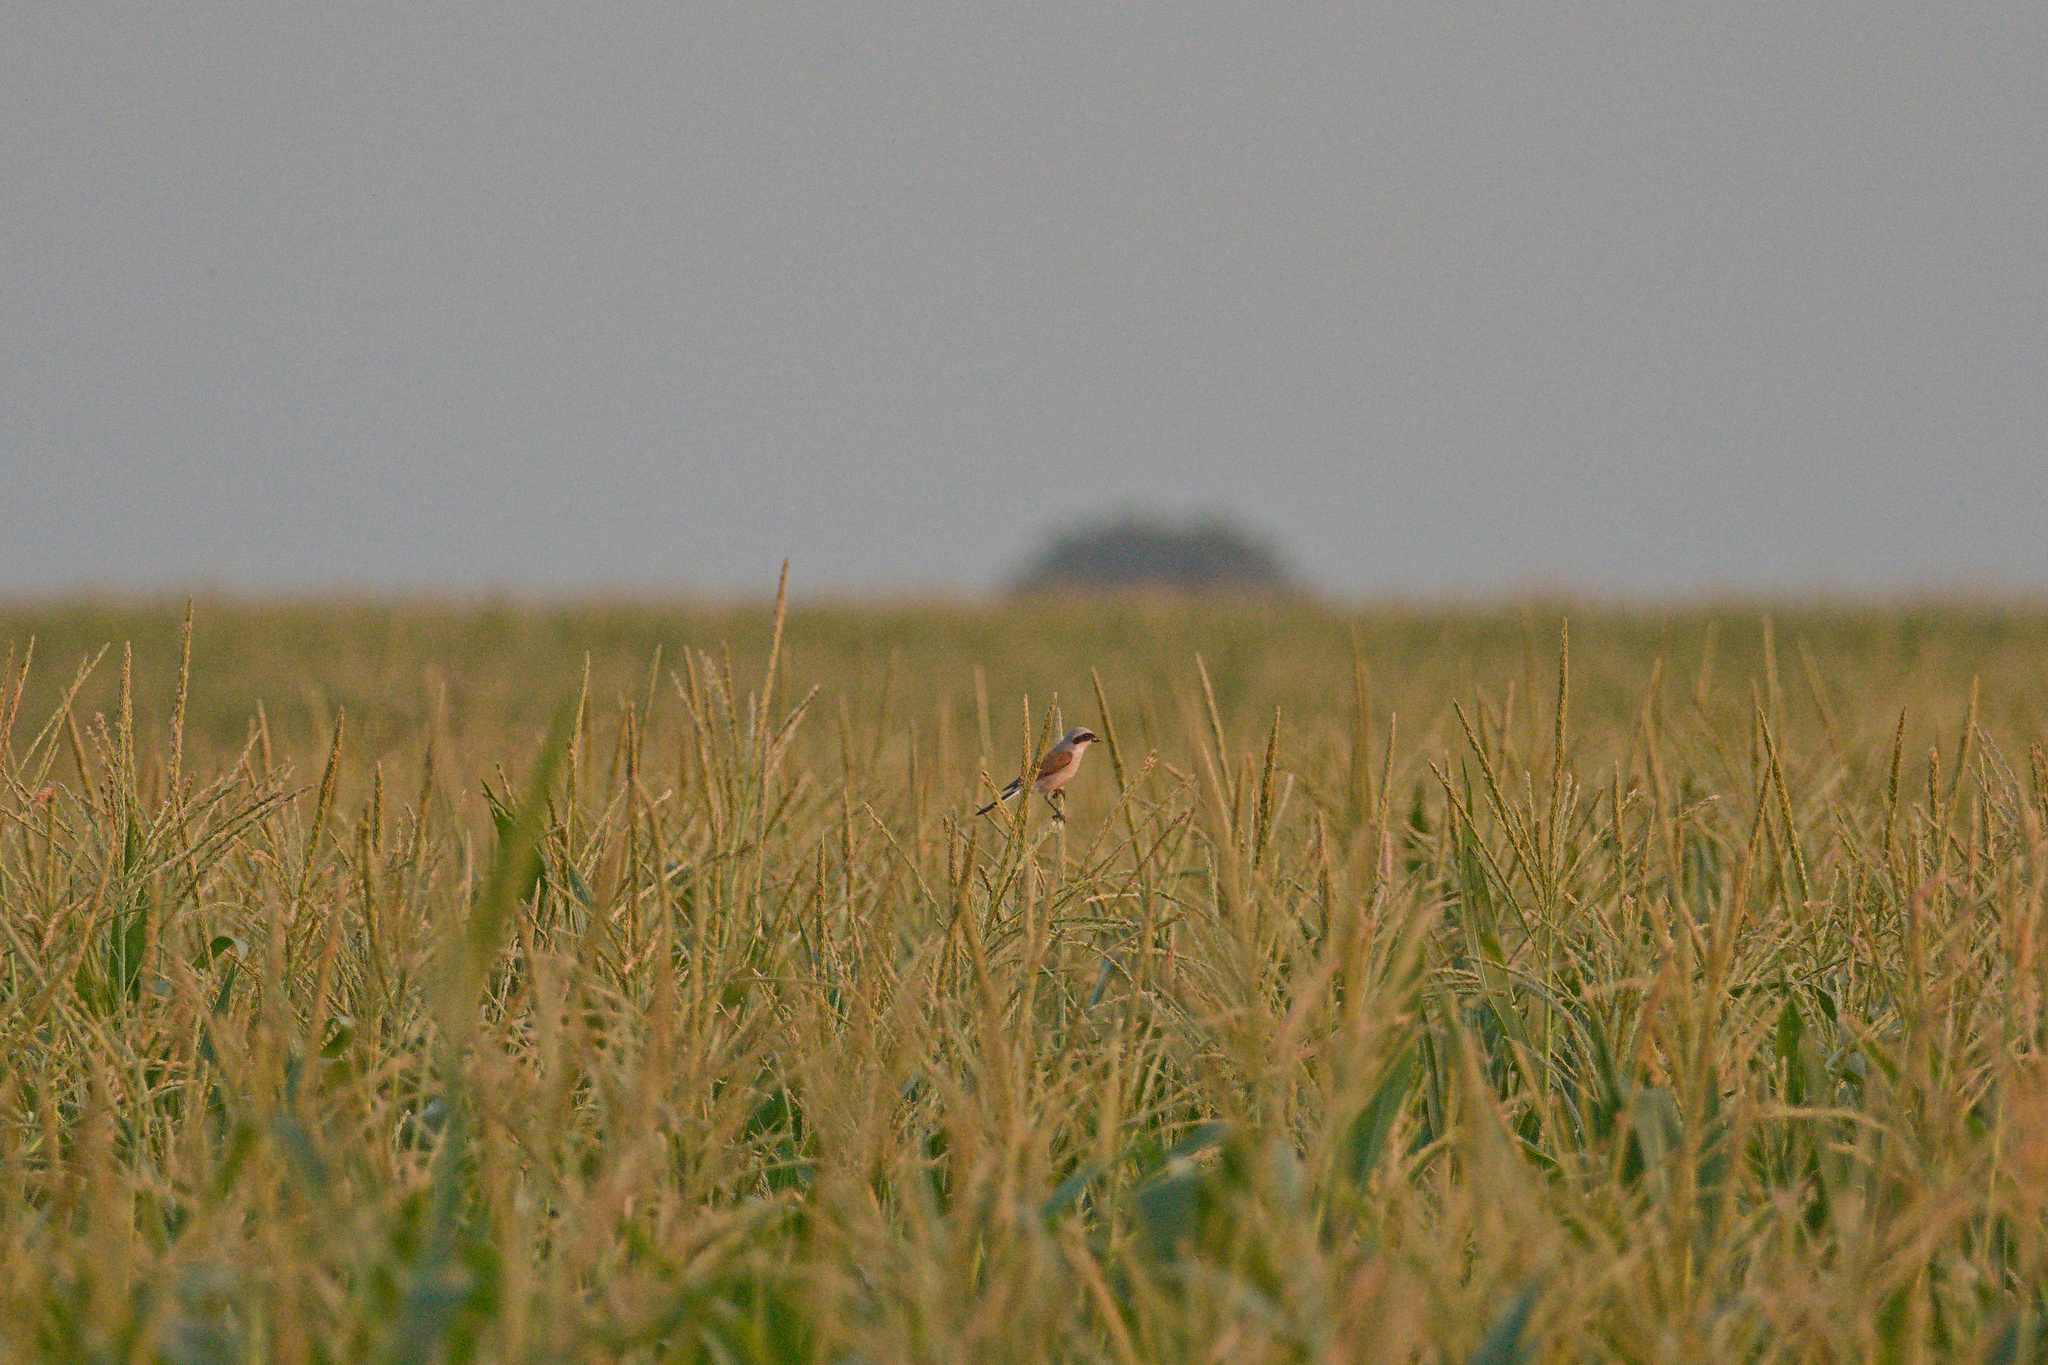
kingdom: Animalia
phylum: Chordata
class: Aves
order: Passeriformes
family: Laniidae
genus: Lanius
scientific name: Lanius collurio
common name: Red-backed shrike
